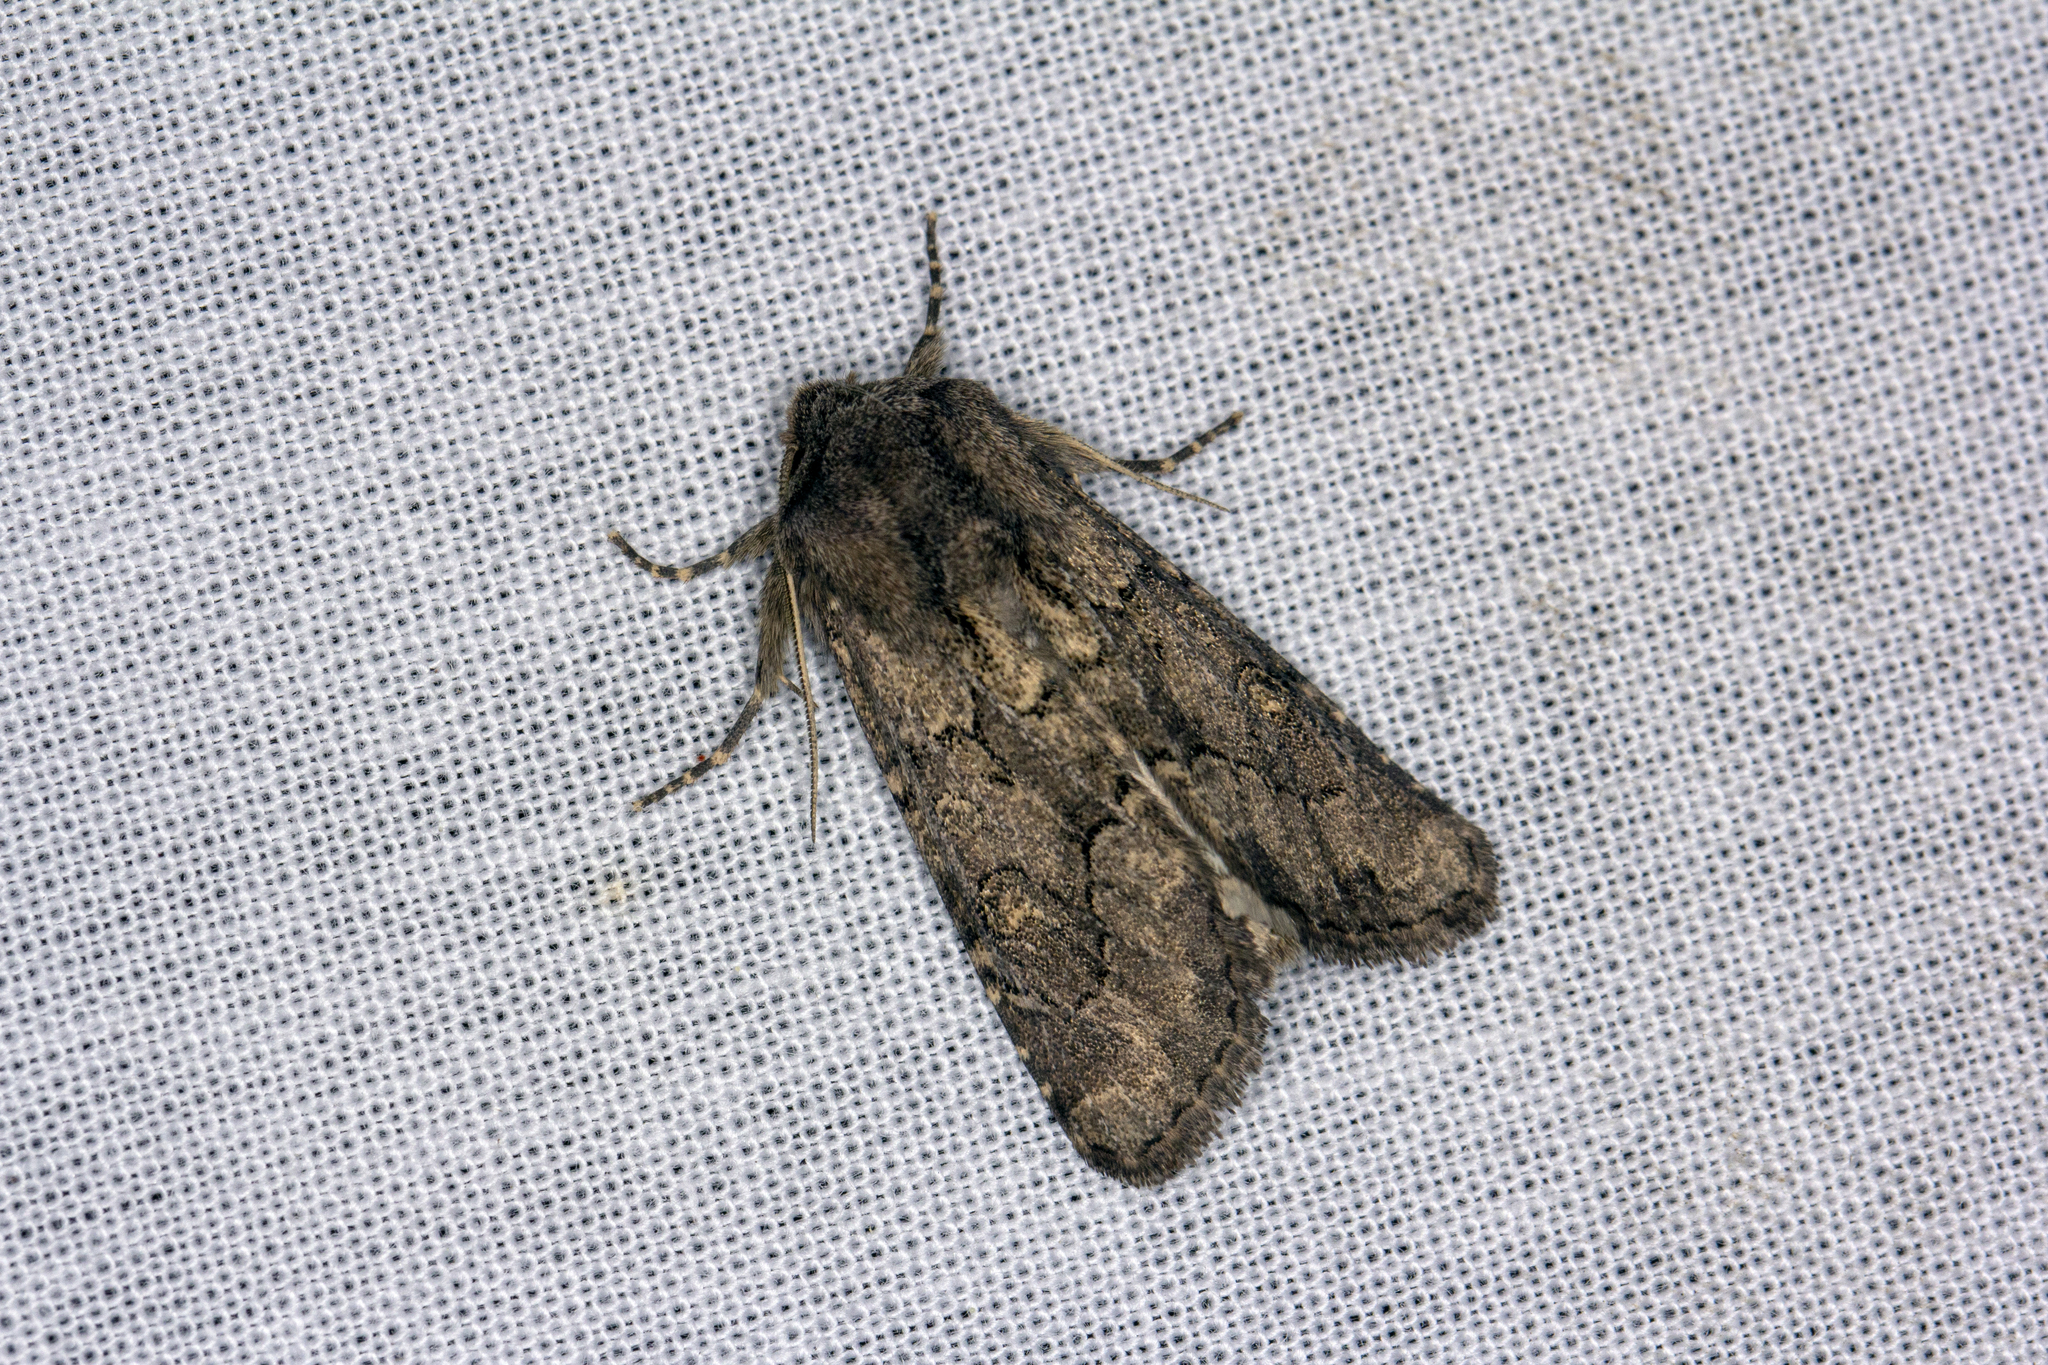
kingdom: Animalia
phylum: Arthropoda
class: Insecta
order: Lepidoptera
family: Noctuidae
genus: Luperina
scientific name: Luperina testacea
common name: Flounced rustic
